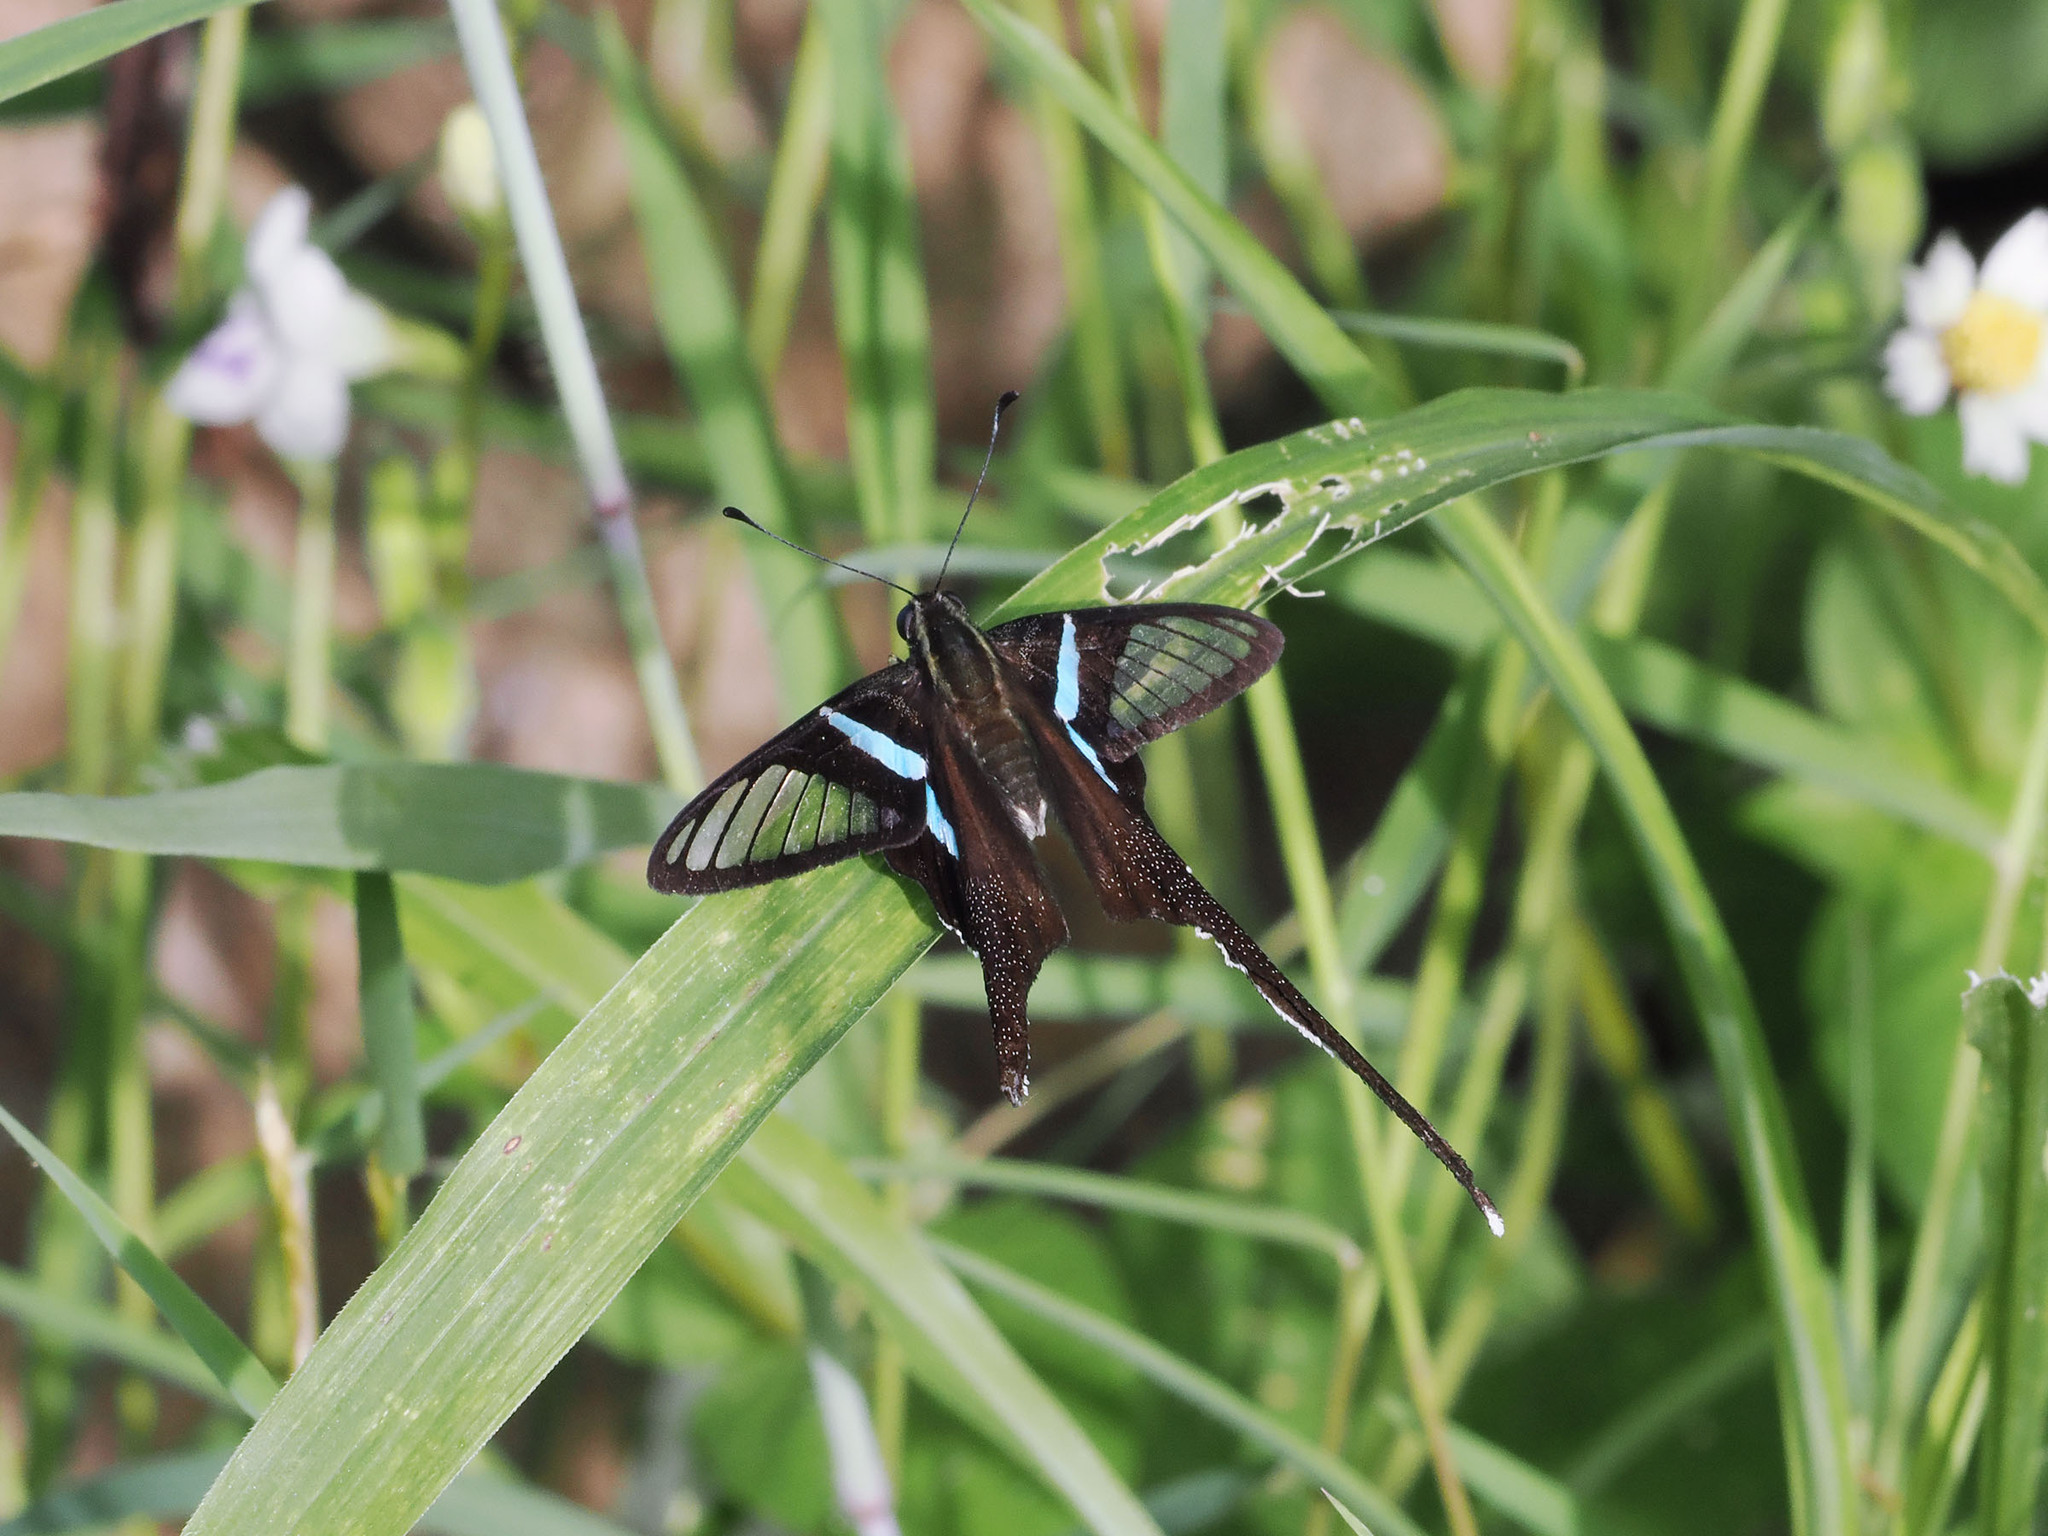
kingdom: Animalia
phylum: Arthropoda
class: Insecta
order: Lepidoptera
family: Papilionidae
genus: Lamproptera
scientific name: Lamproptera meges
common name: Green dragontail
